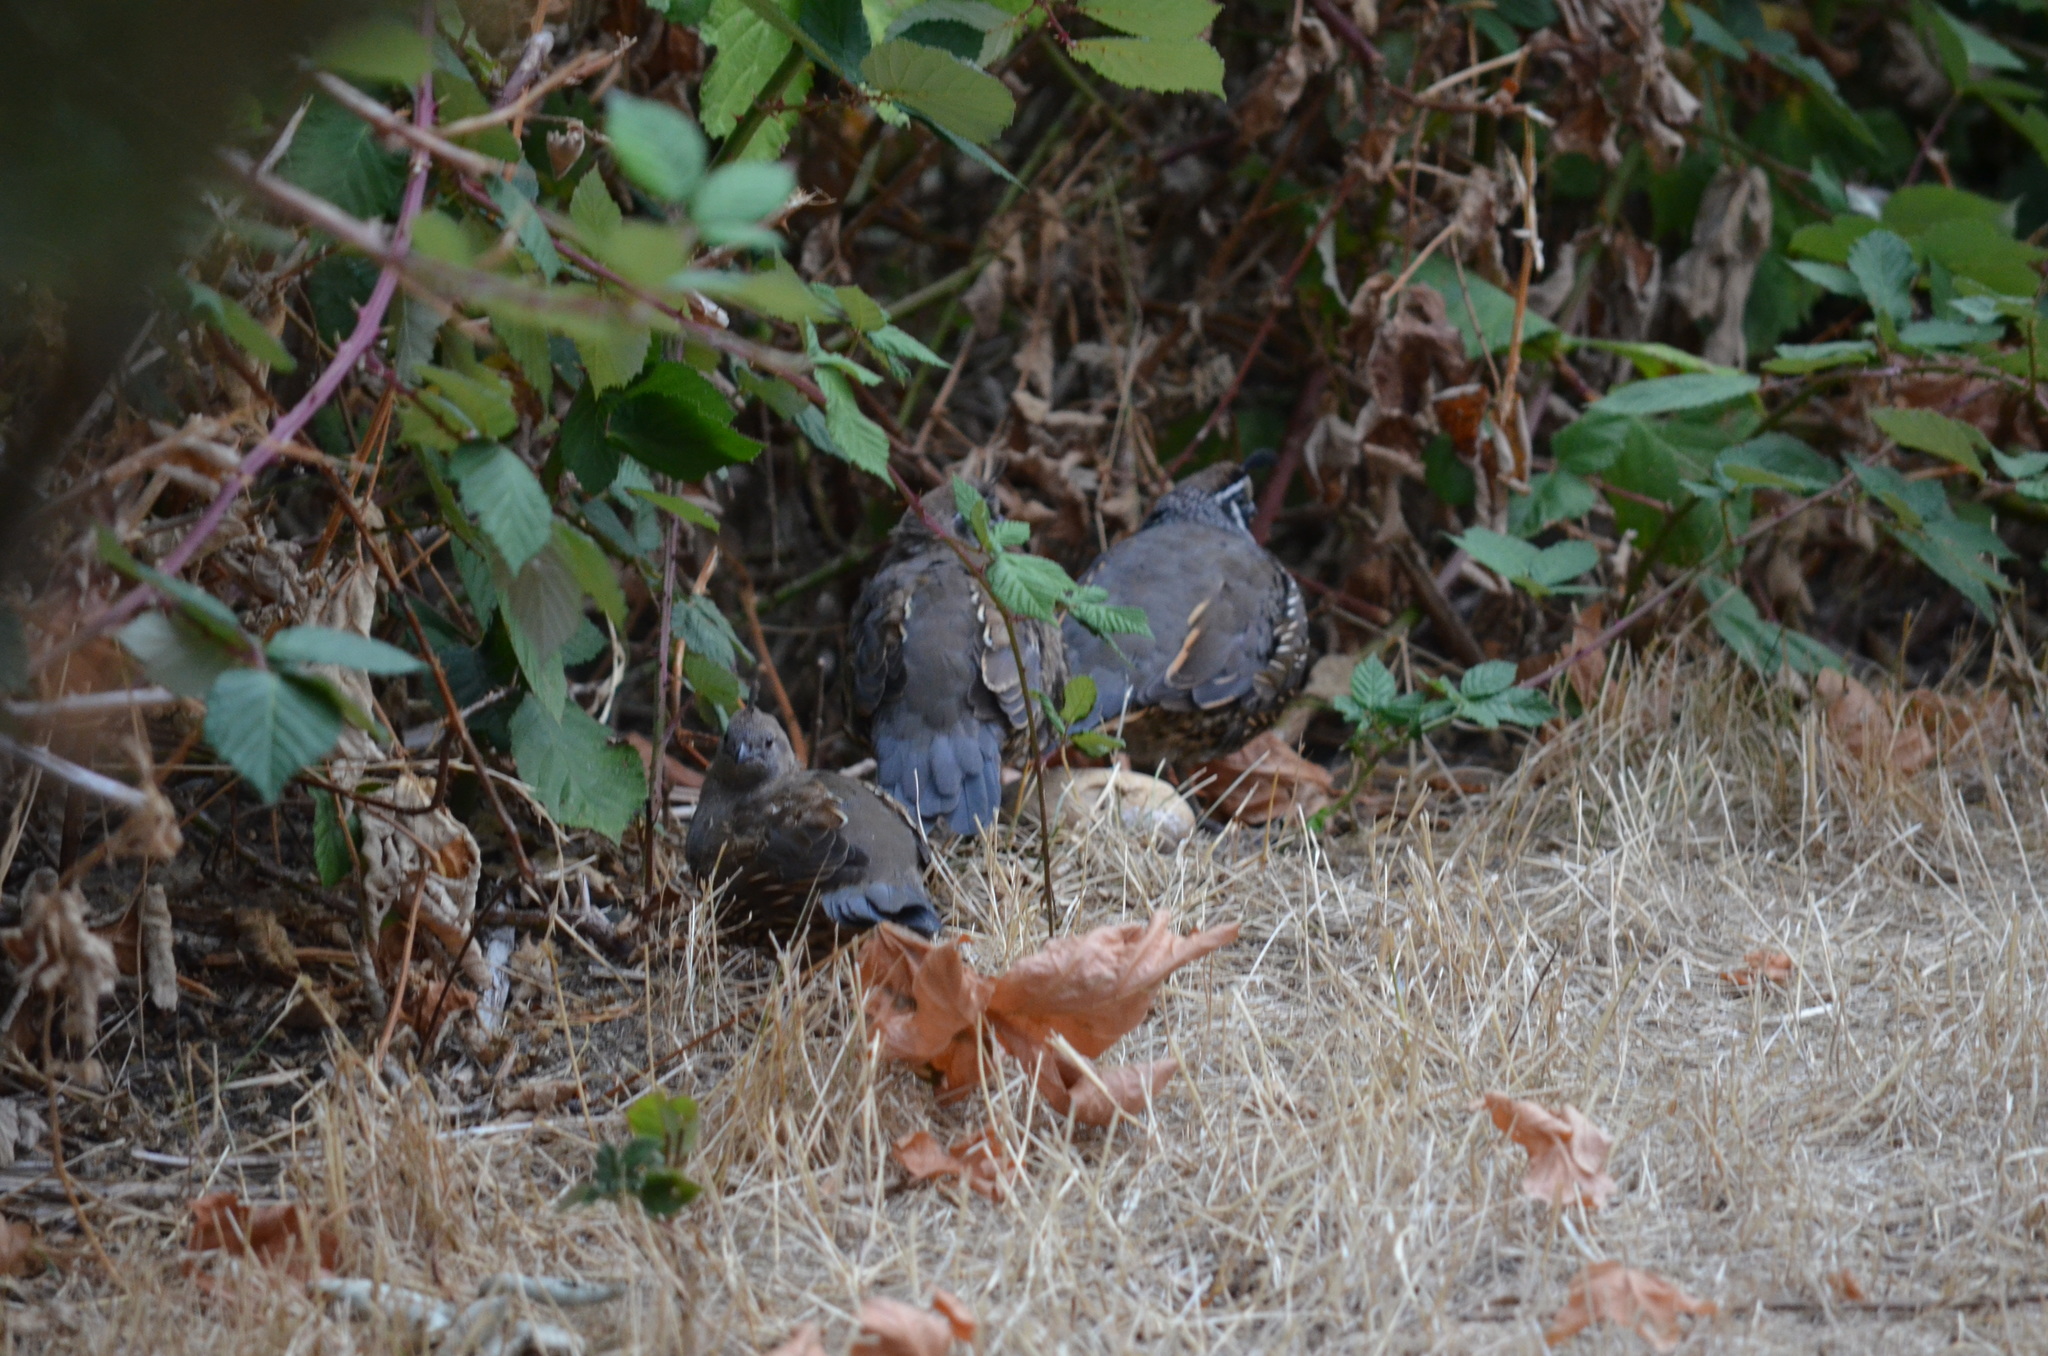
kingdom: Animalia
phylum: Chordata
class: Aves
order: Galliformes
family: Odontophoridae
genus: Callipepla
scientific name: Callipepla californica
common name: California quail
